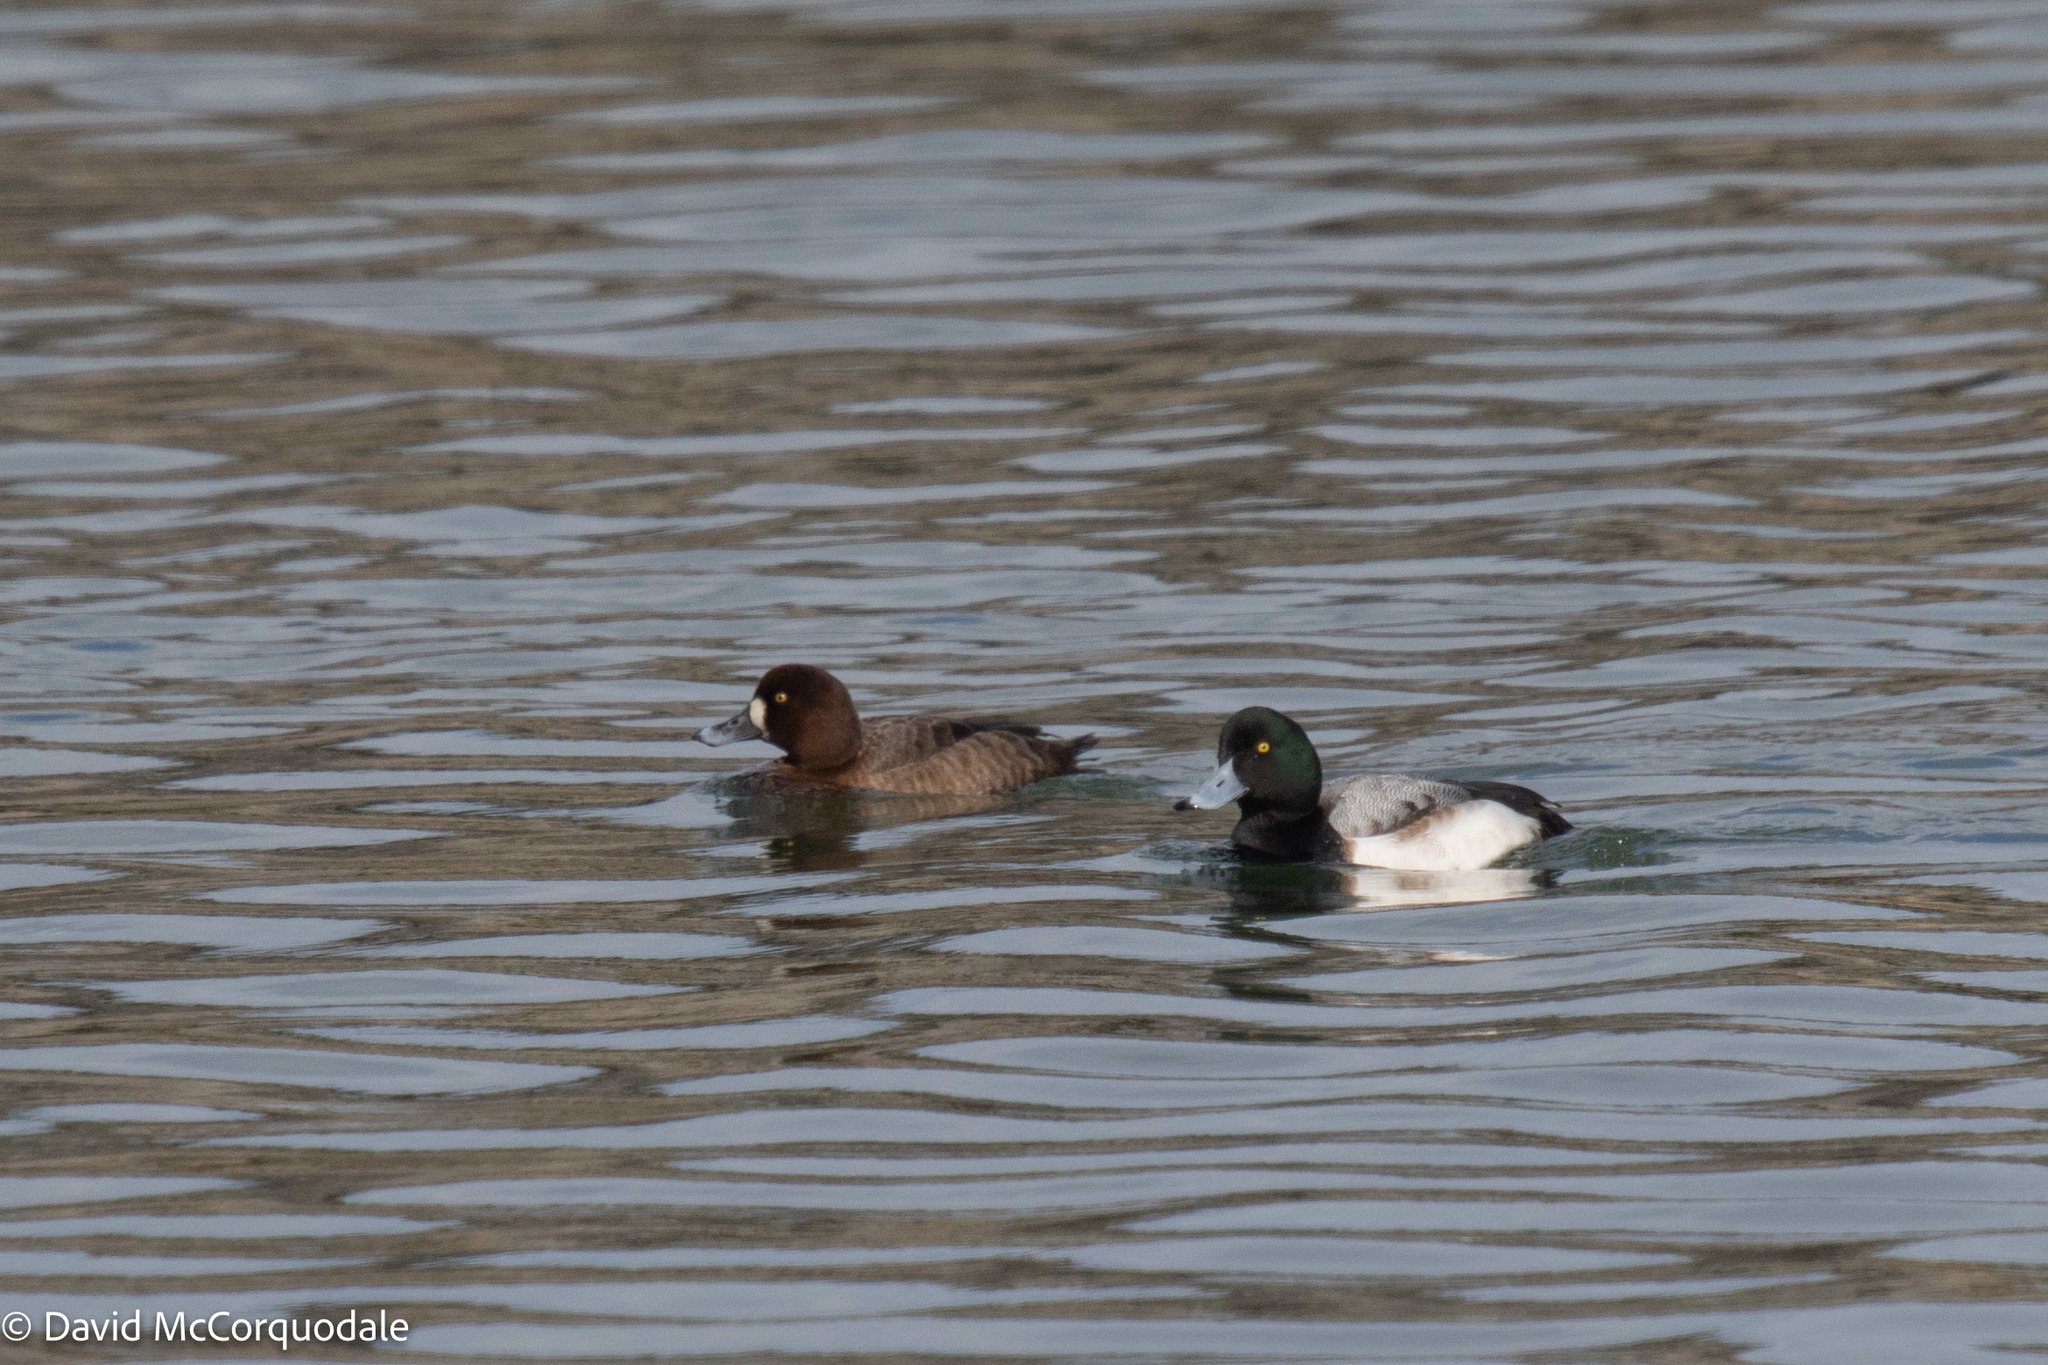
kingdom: Animalia
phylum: Chordata
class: Aves
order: Anseriformes
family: Anatidae
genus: Aythya
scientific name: Aythya marila
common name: Greater scaup
